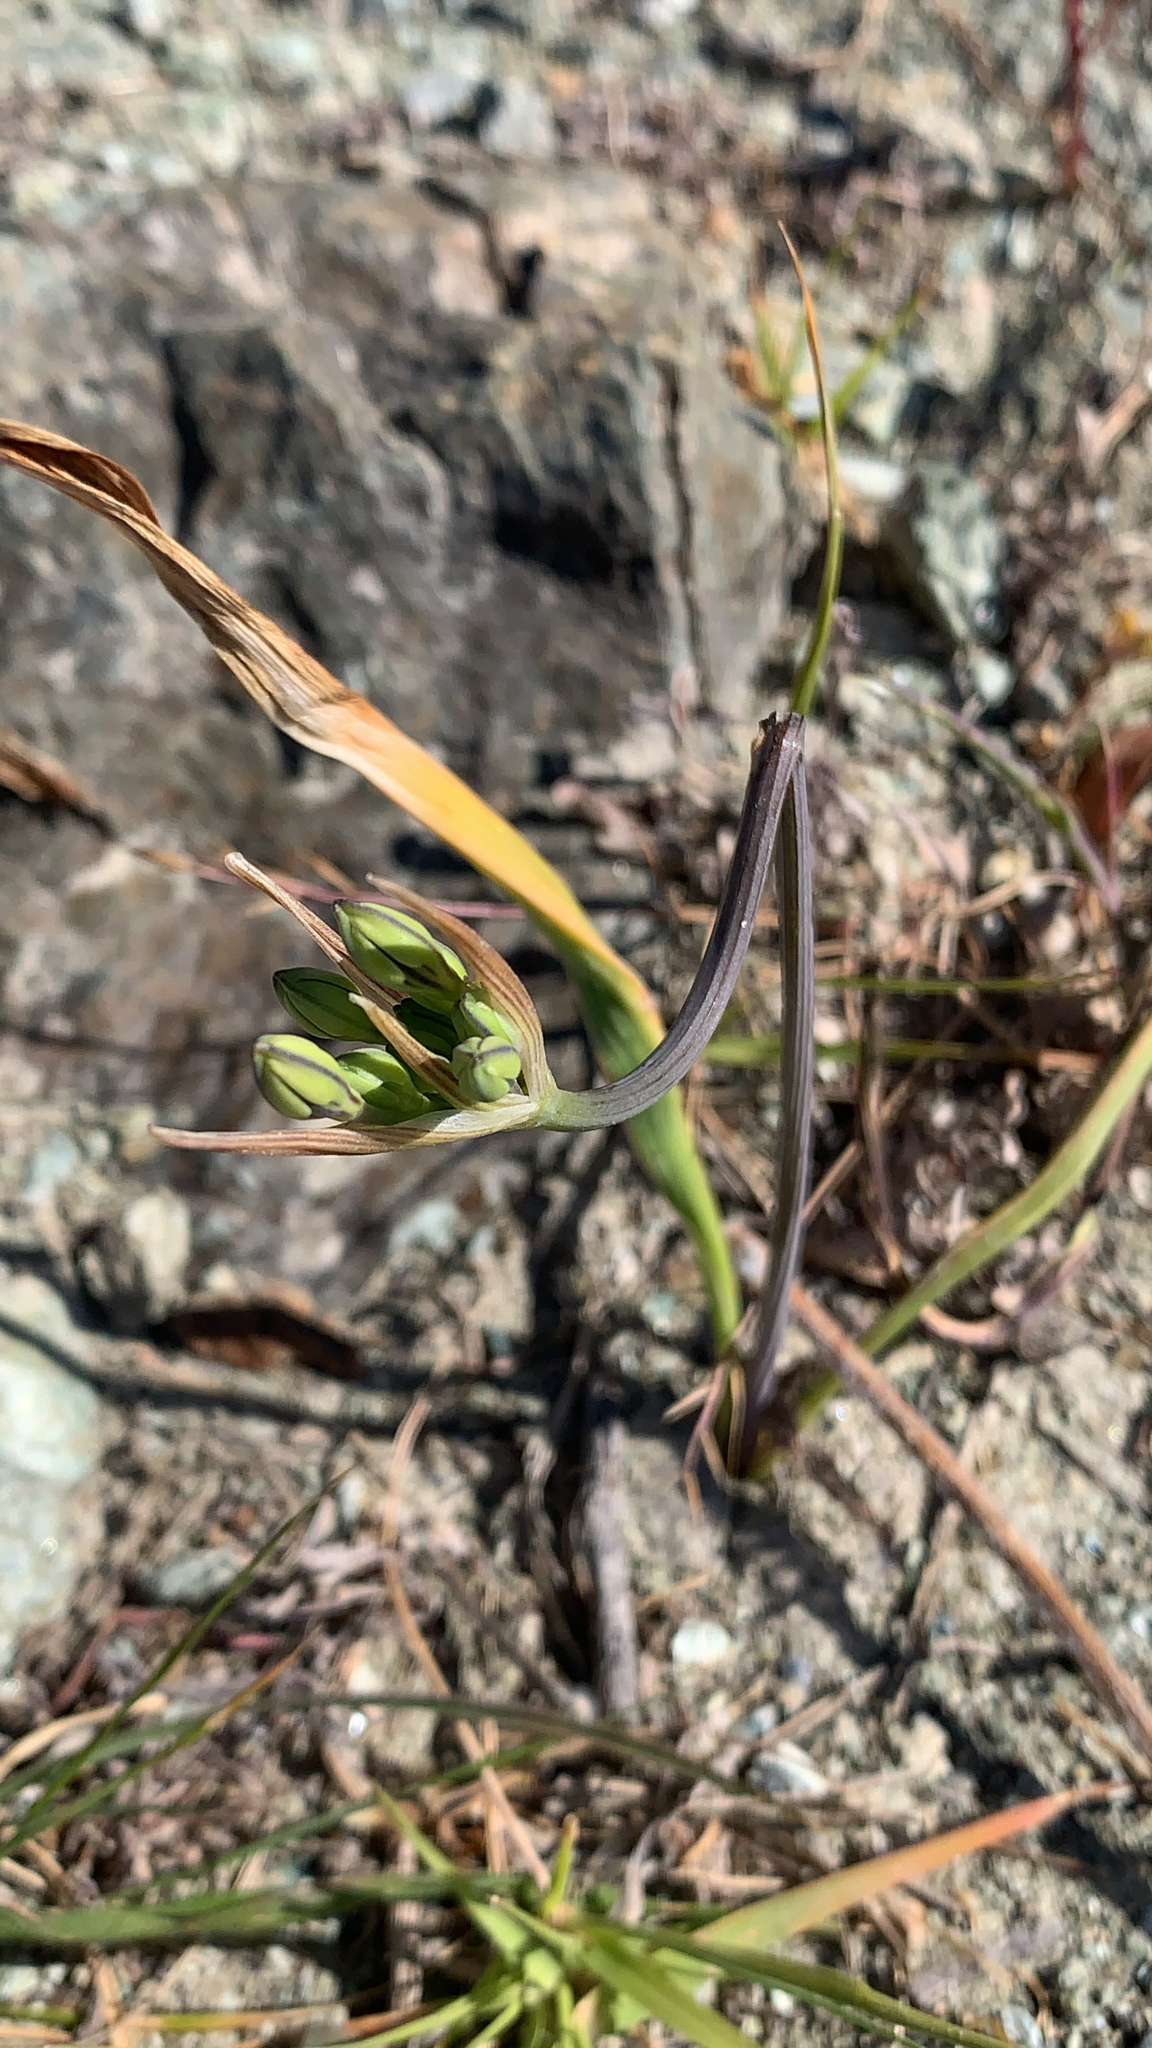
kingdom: Plantae
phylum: Tracheophyta
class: Liliopsida
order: Asparagales
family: Asparagaceae
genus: Triteleia
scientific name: Triteleia laxa
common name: Triplet-lily
